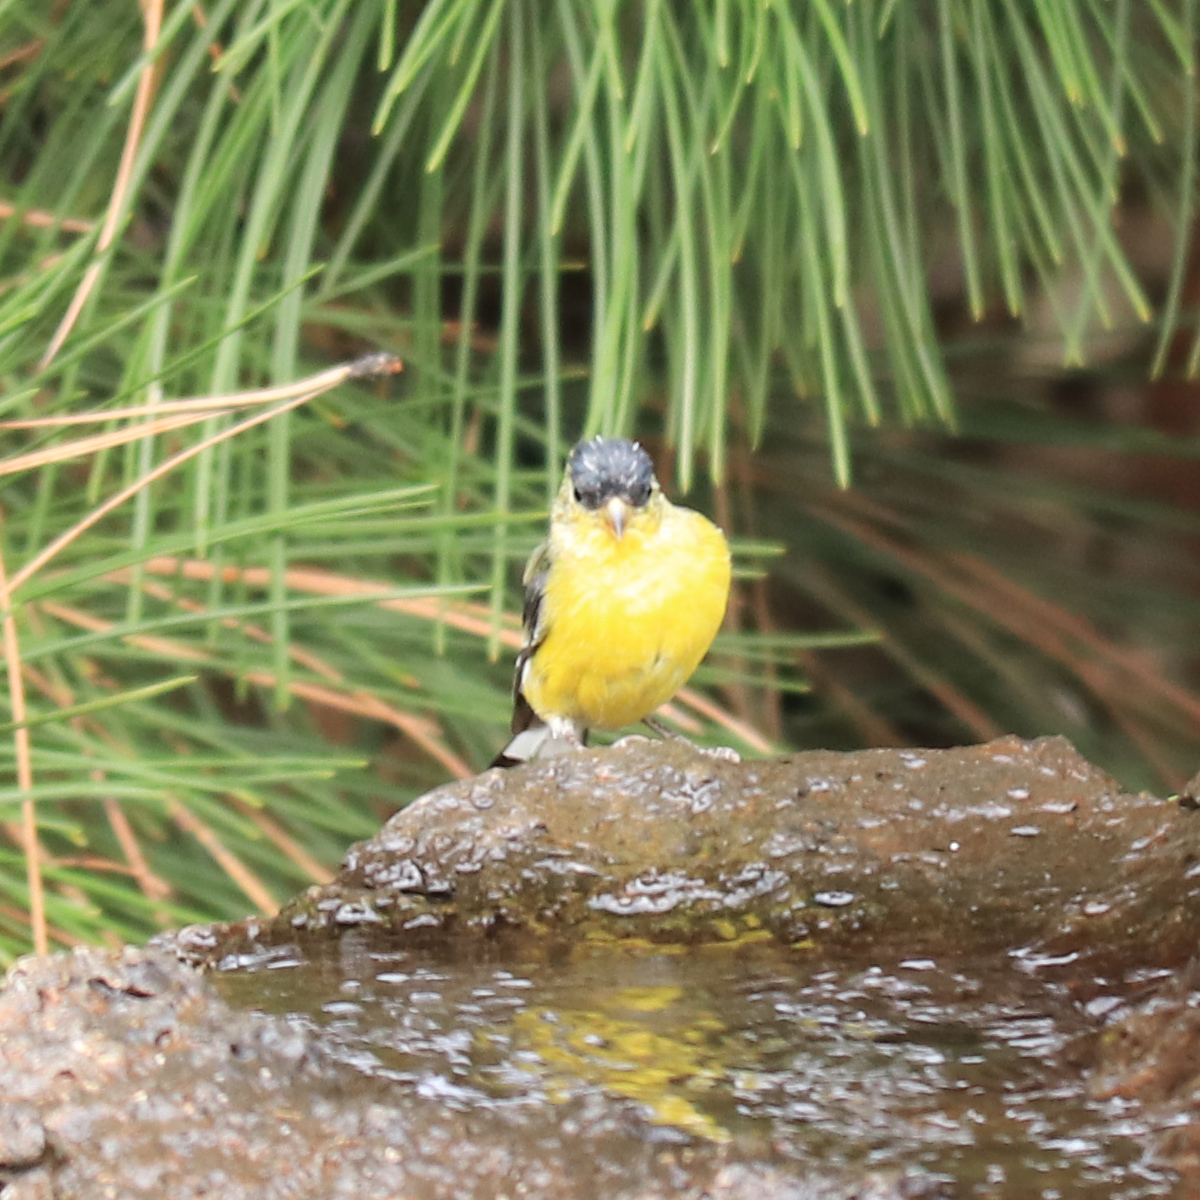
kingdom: Animalia
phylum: Chordata
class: Aves
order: Passeriformes
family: Fringillidae
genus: Spinus
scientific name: Spinus psaltria
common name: Lesser goldfinch
